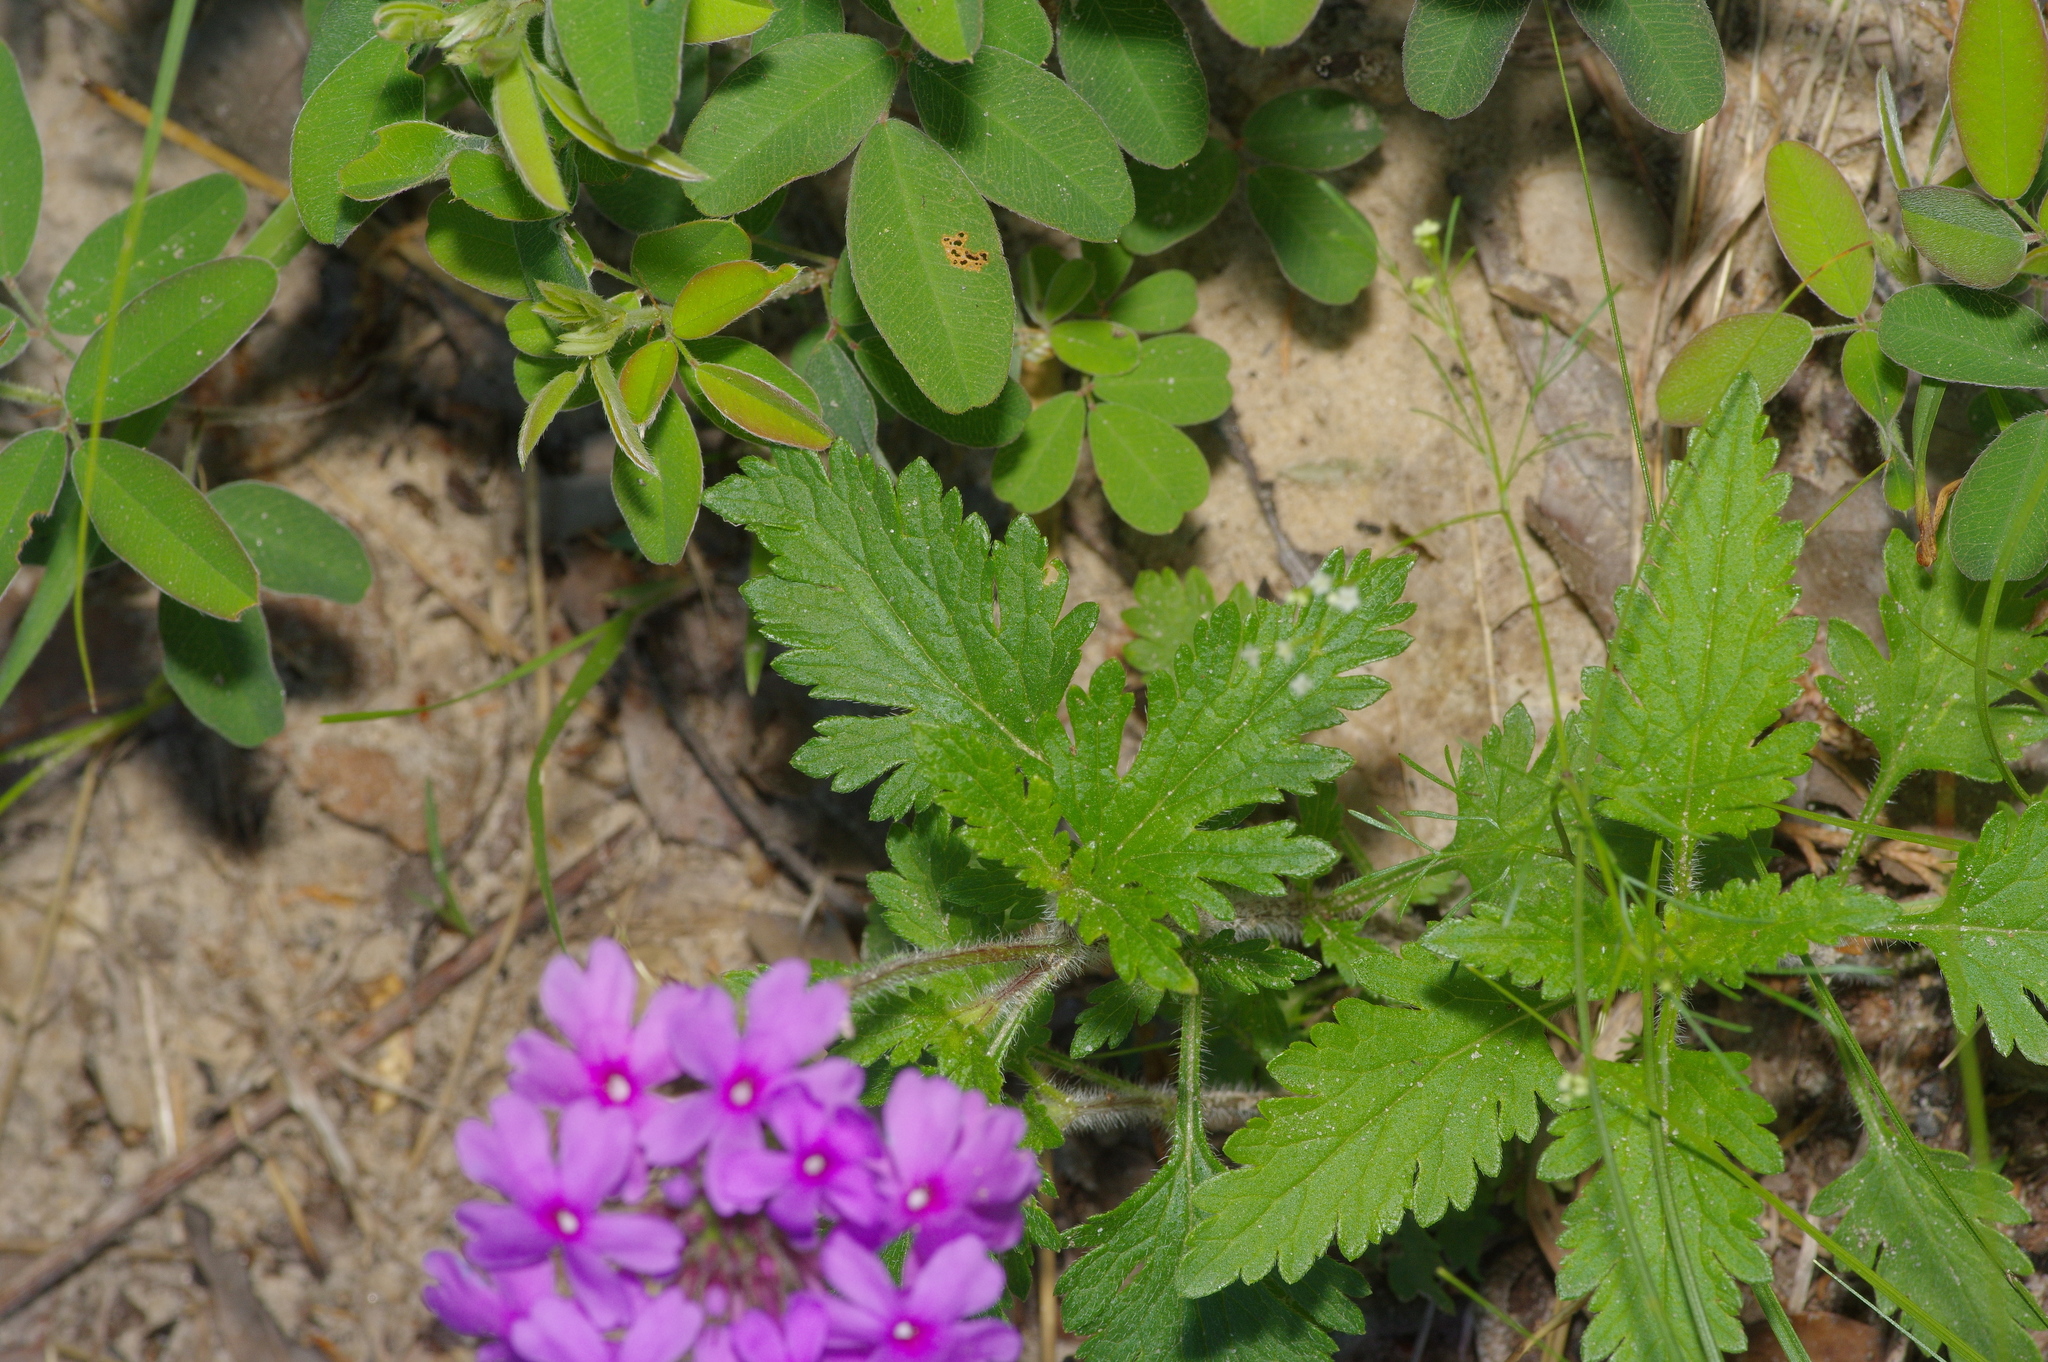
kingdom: Plantae
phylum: Tracheophyta
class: Magnoliopsida
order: Lamiales
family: Verbenaceae
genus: Verbena
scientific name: Verbena canadensis
